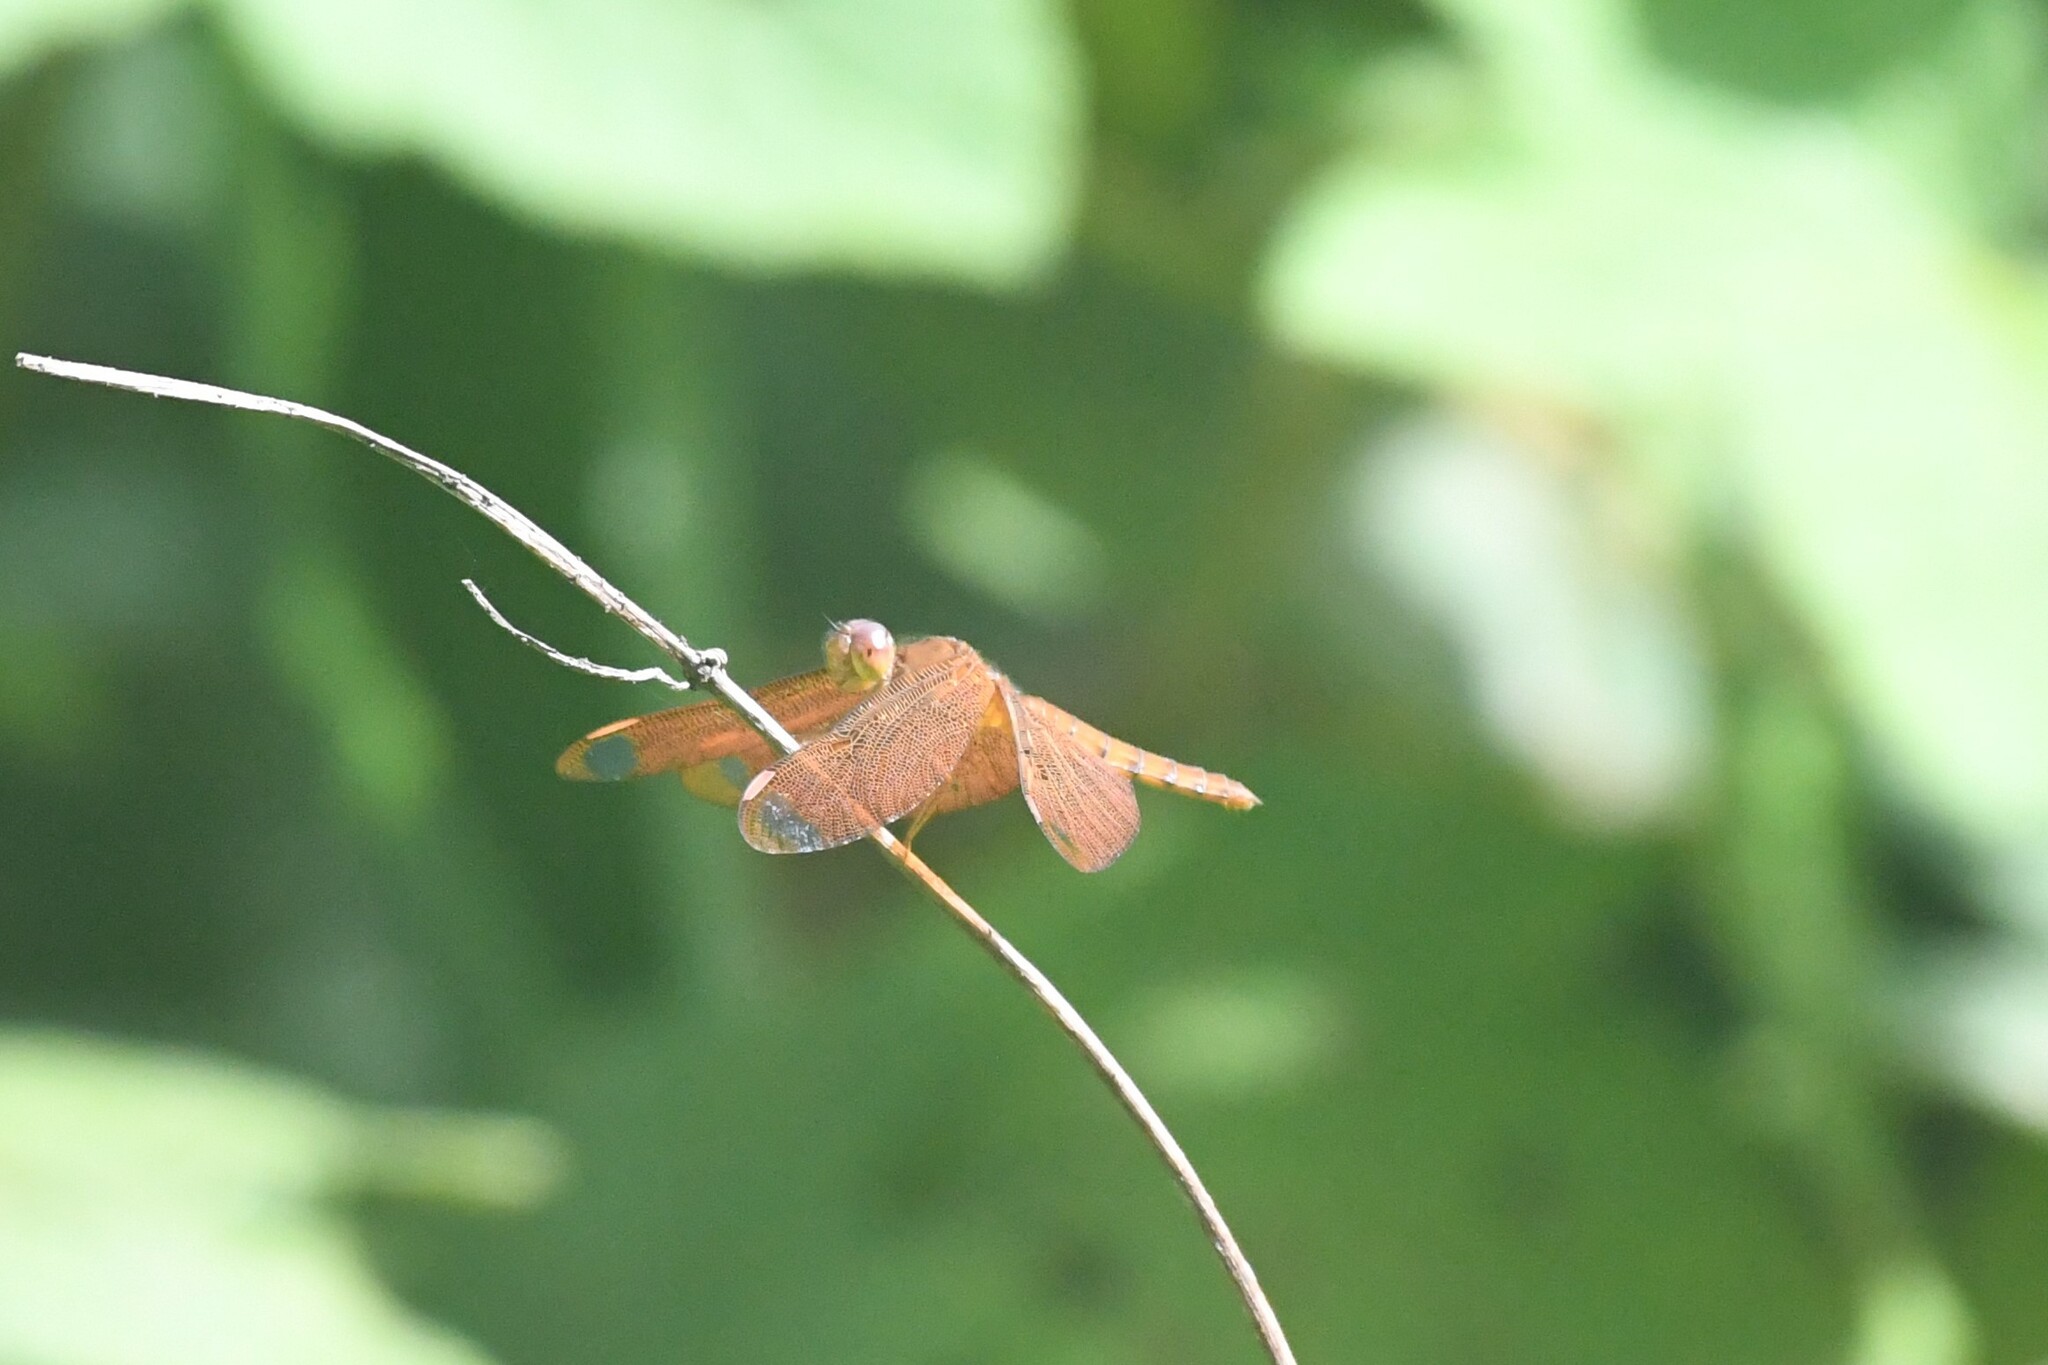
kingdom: Animalia
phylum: Arthropoda
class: Insecta
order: Odonata
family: Libellulidae
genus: Neurothemis
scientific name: Neurothemis fulvia
